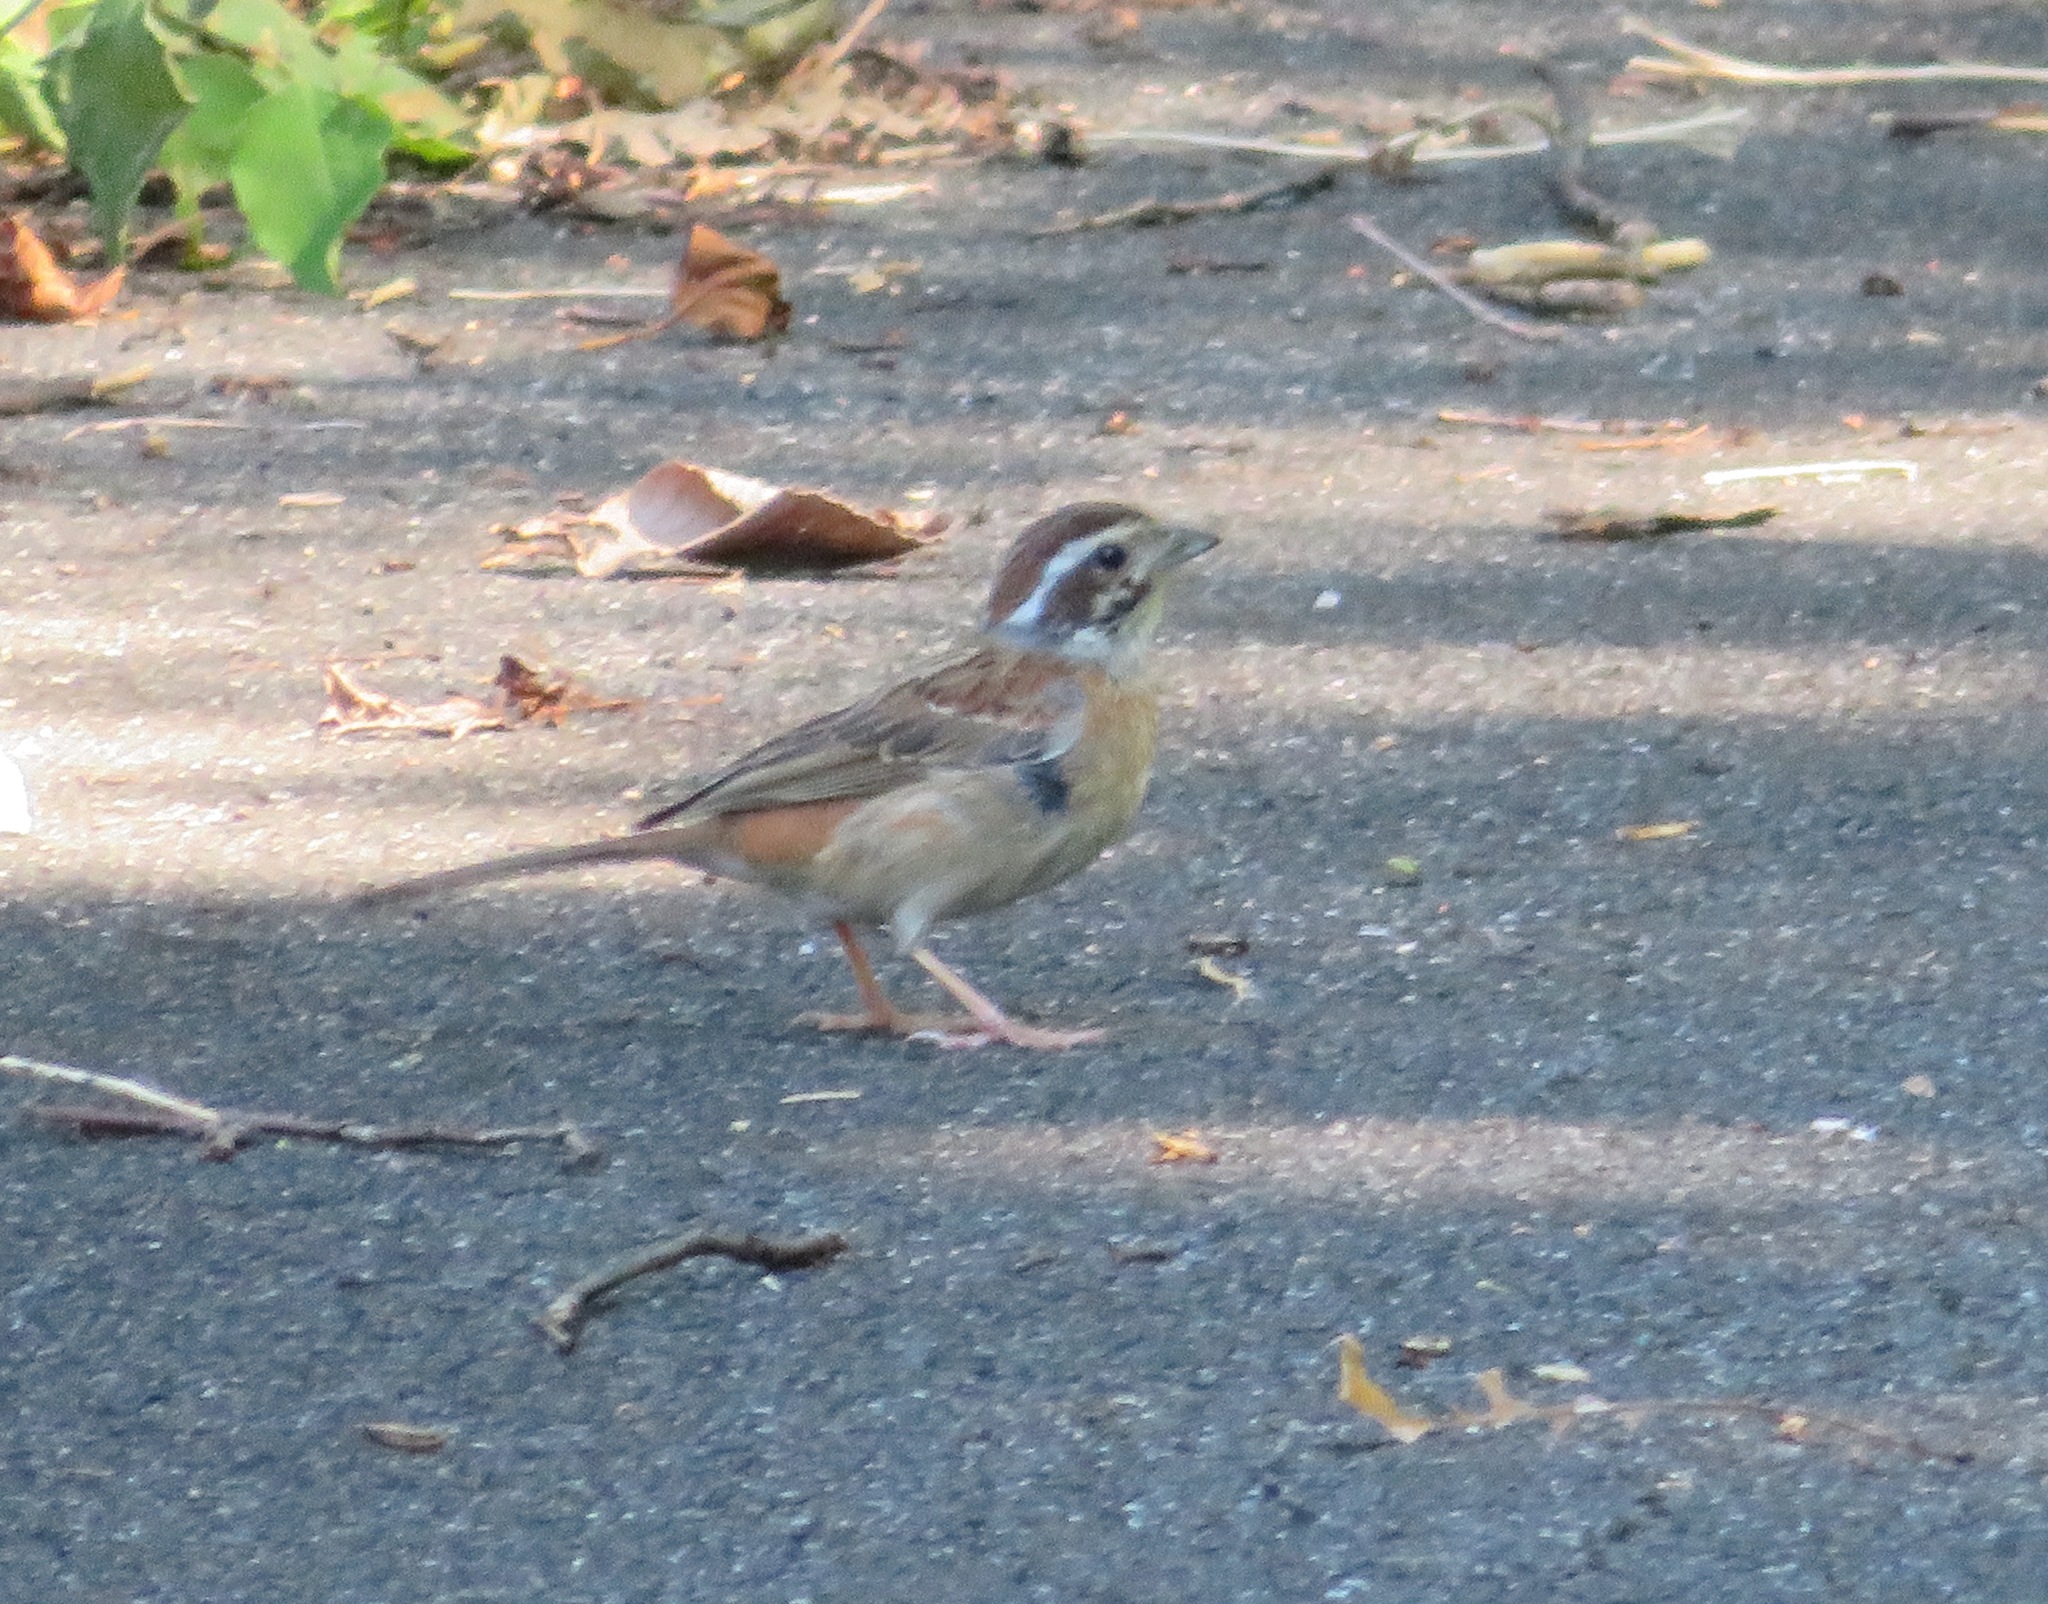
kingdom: Animalia
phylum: Chordata
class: Aves
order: Passeriformes
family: Emberizidae
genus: Emberiza
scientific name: Emberiza cioides
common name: Meadow bunting
